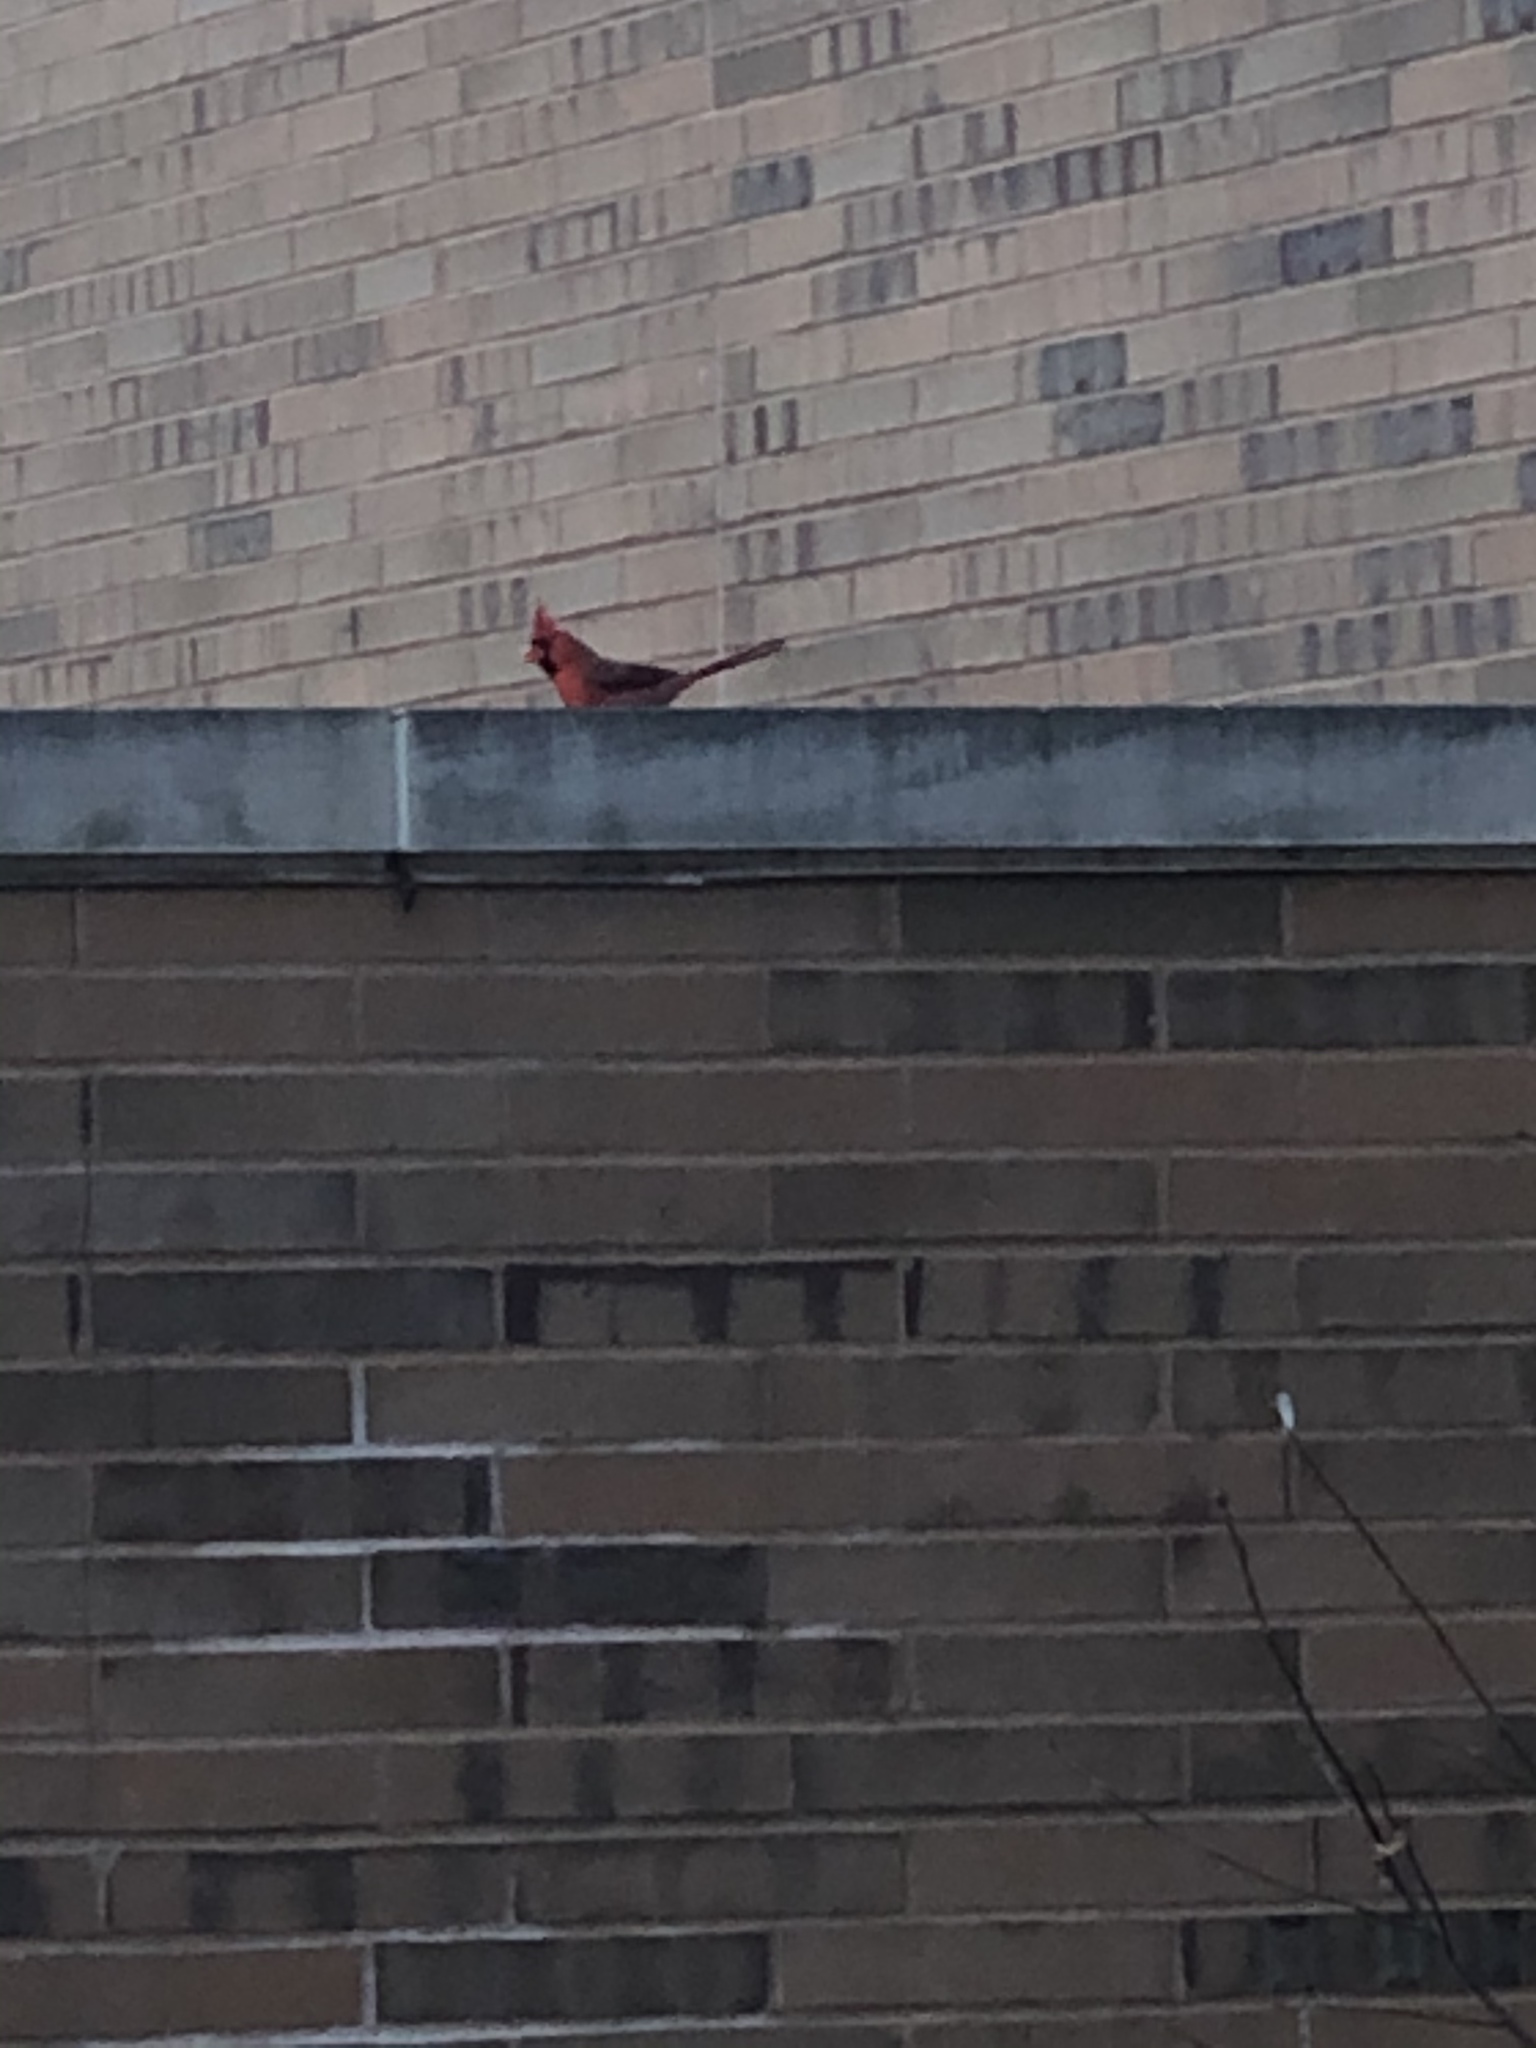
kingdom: Animalia
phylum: Chordata
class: Aves
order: Passeriformes
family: Cardinalidae
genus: Cardinalis
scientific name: Cardinalis cardinalis
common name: Northern cardinal
